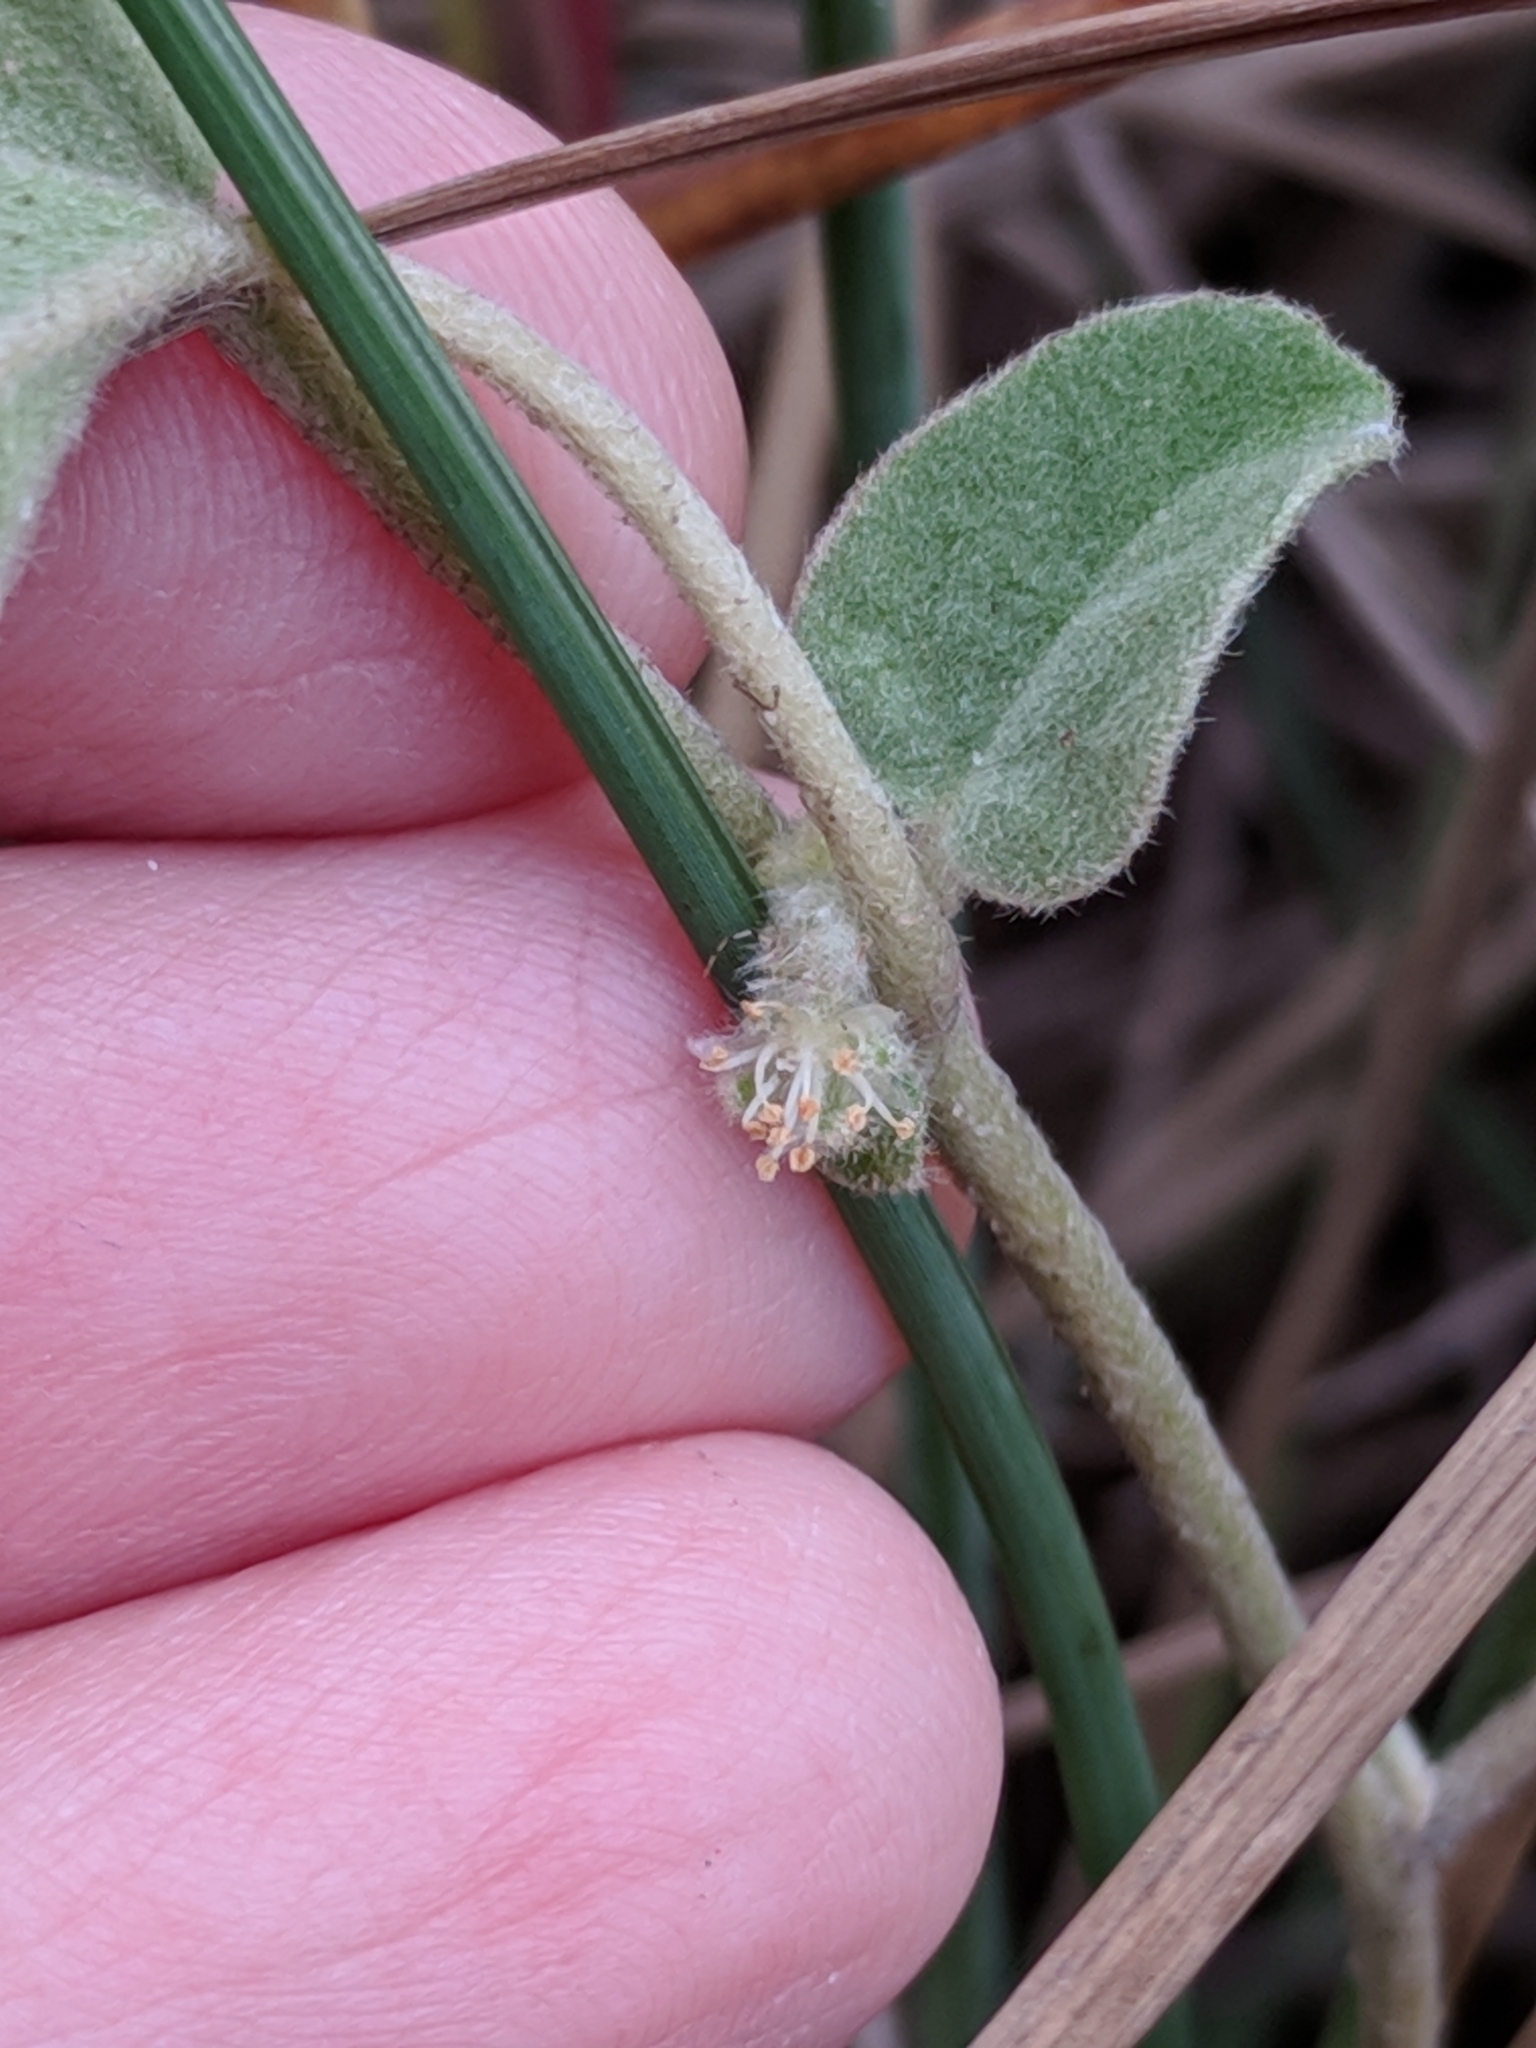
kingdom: Plantae
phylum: Tracheophyta
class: Magnoliopsida
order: Malpighiales
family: Euphorbiaceae
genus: Croton
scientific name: Croton heptalon
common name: Woolly croton
